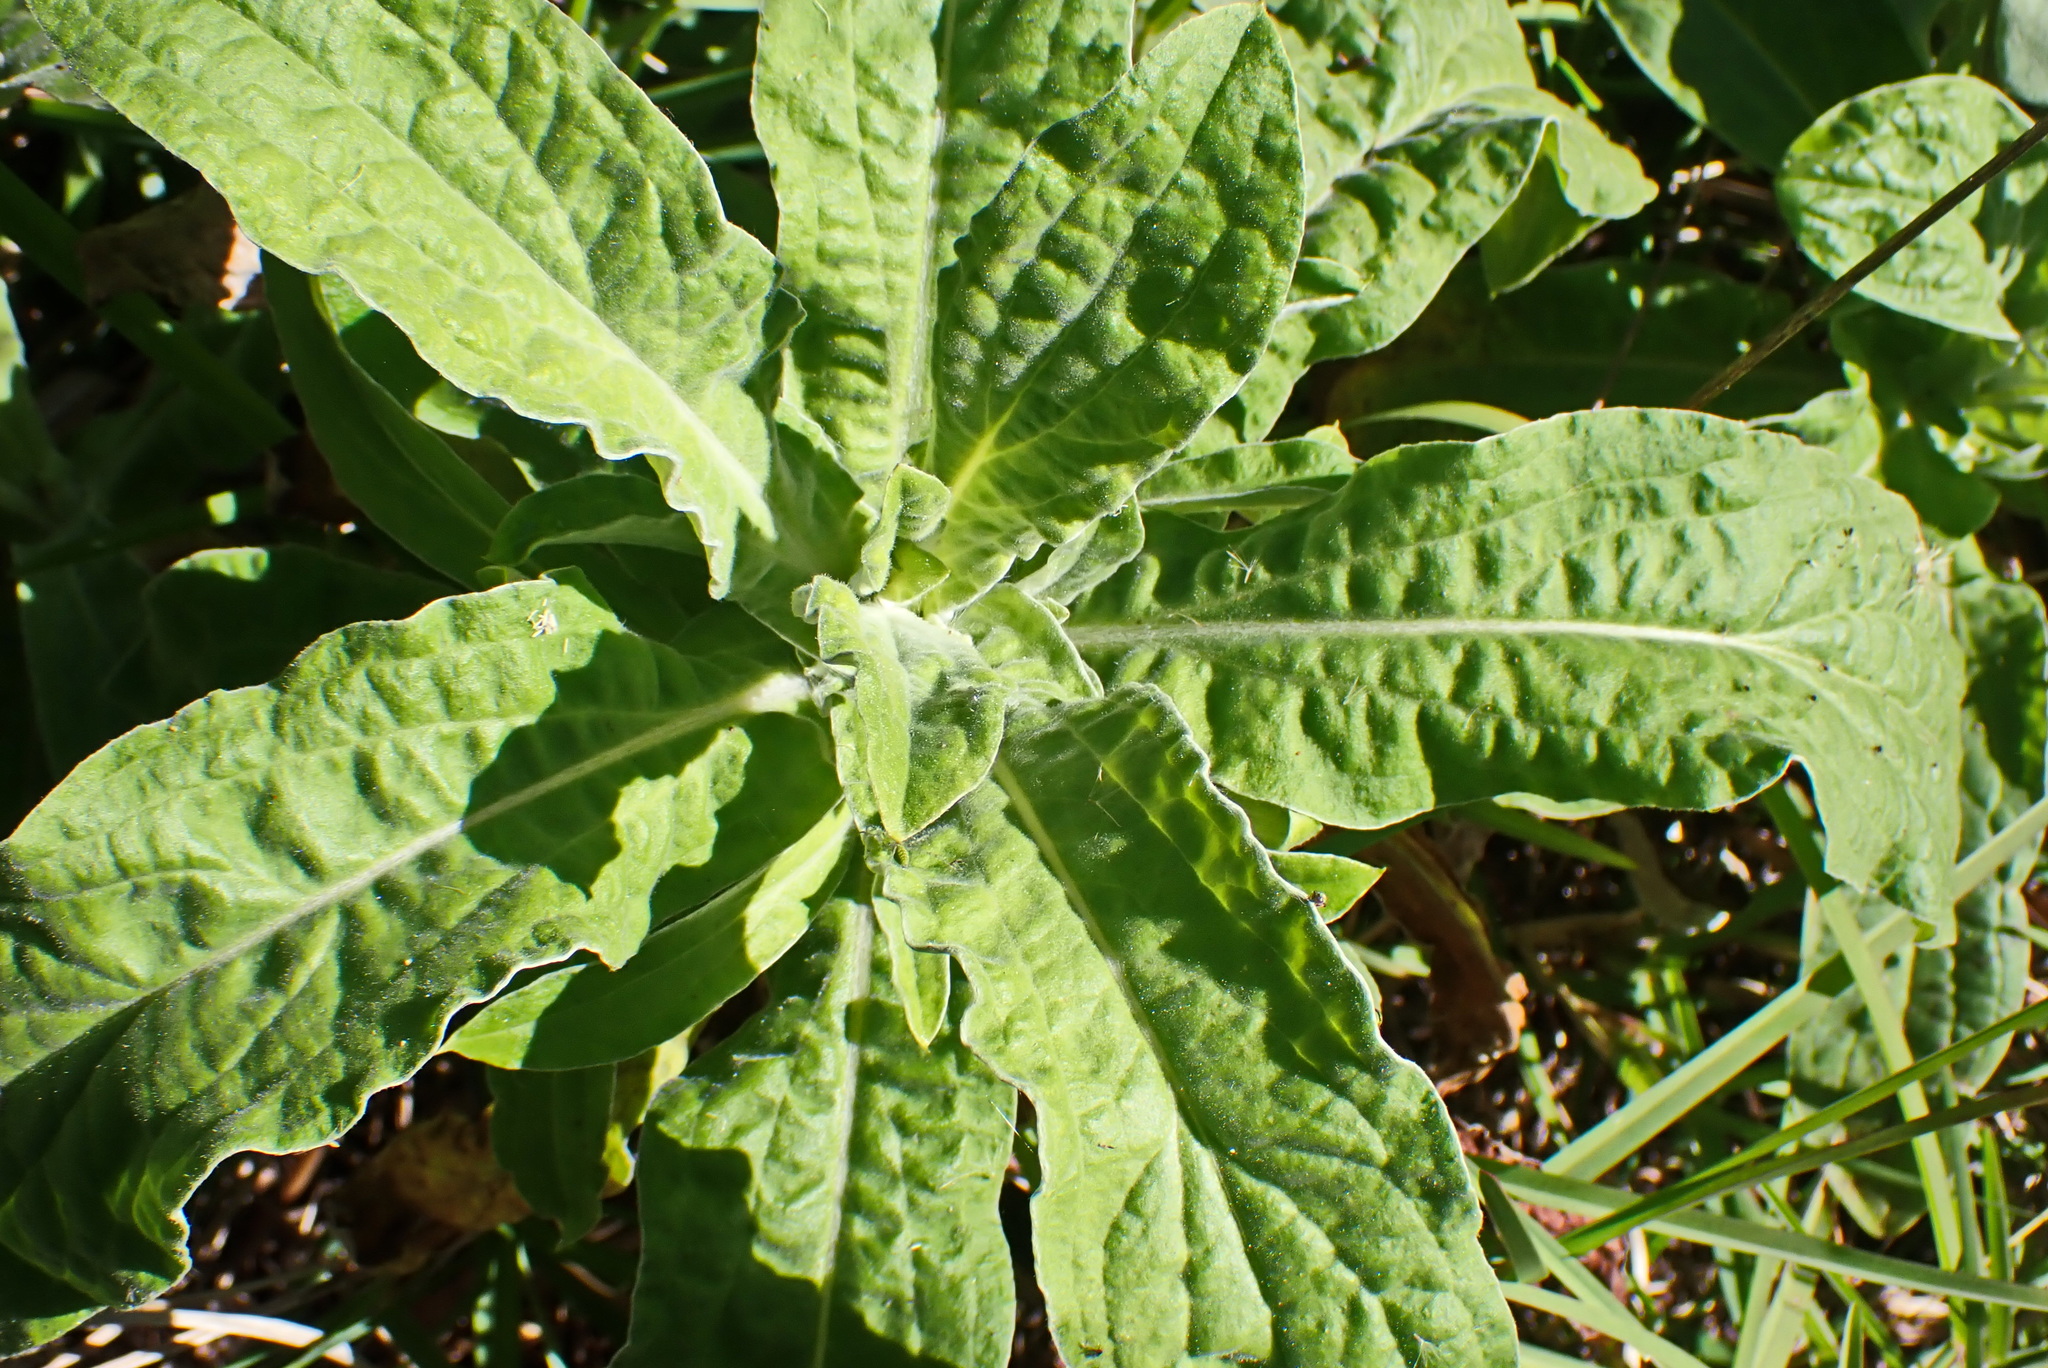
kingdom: Plantae
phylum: Tracheophyta
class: Magnoliopsida
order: Asterales
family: Asteraceae
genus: Helichrysum
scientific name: Helichrysum foetidum
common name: Stinking everlasting
